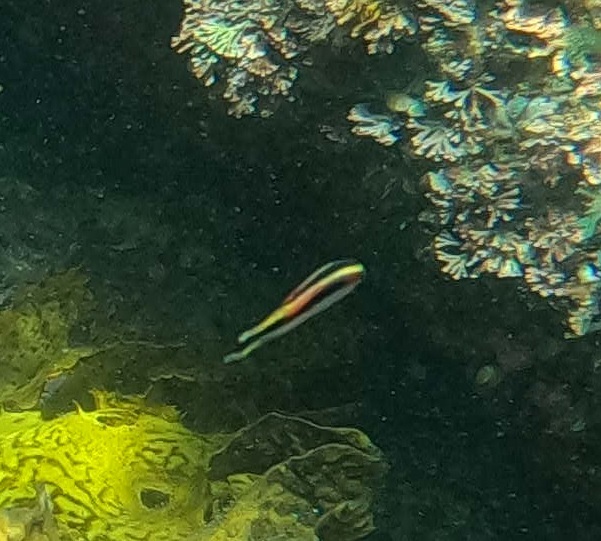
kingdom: Animalia
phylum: Chordata
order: Perciformes
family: Plesiopidae
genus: Trachinops
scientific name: Trachinops taeniatus
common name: Eastern hulafish
